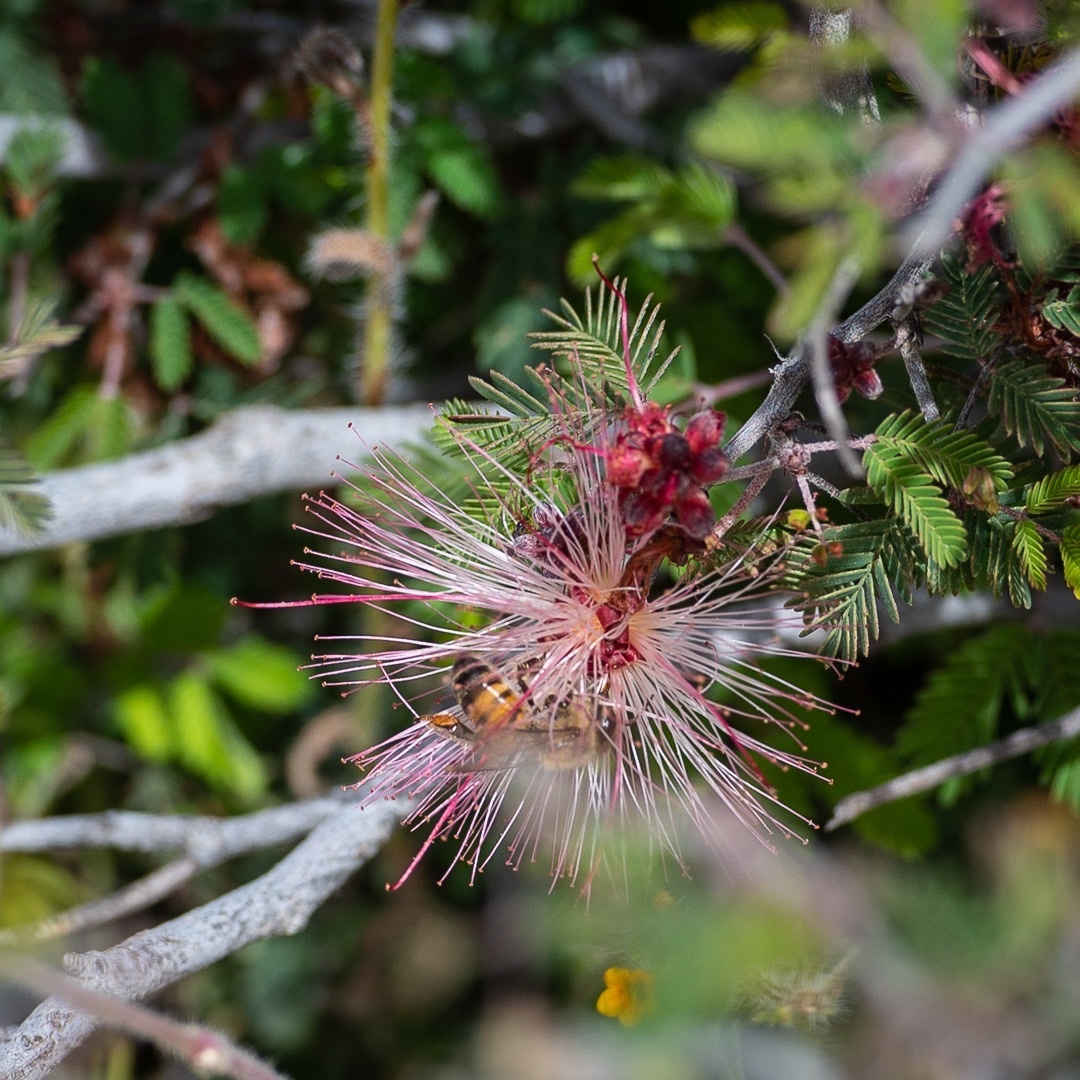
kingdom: Plantae
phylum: Tracheophyta
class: Magnoliopsida
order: Fabales
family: Fabaceae
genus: Calliandra
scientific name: Calliandra eriophylla
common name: Fairy-duster
